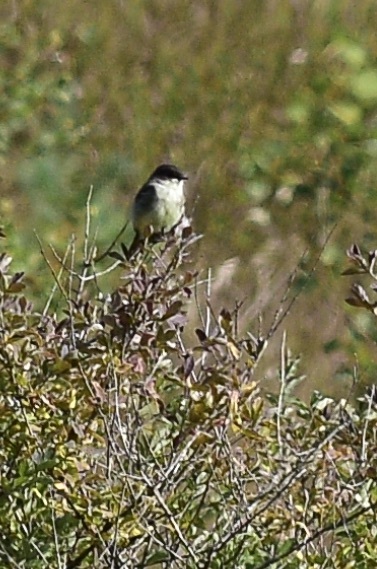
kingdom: Animalia
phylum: Chordata
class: Aves
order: Passeriformes
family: Tyrannidae
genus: Sayornis
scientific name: Sayornis phoebe
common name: Eastern phoebe
